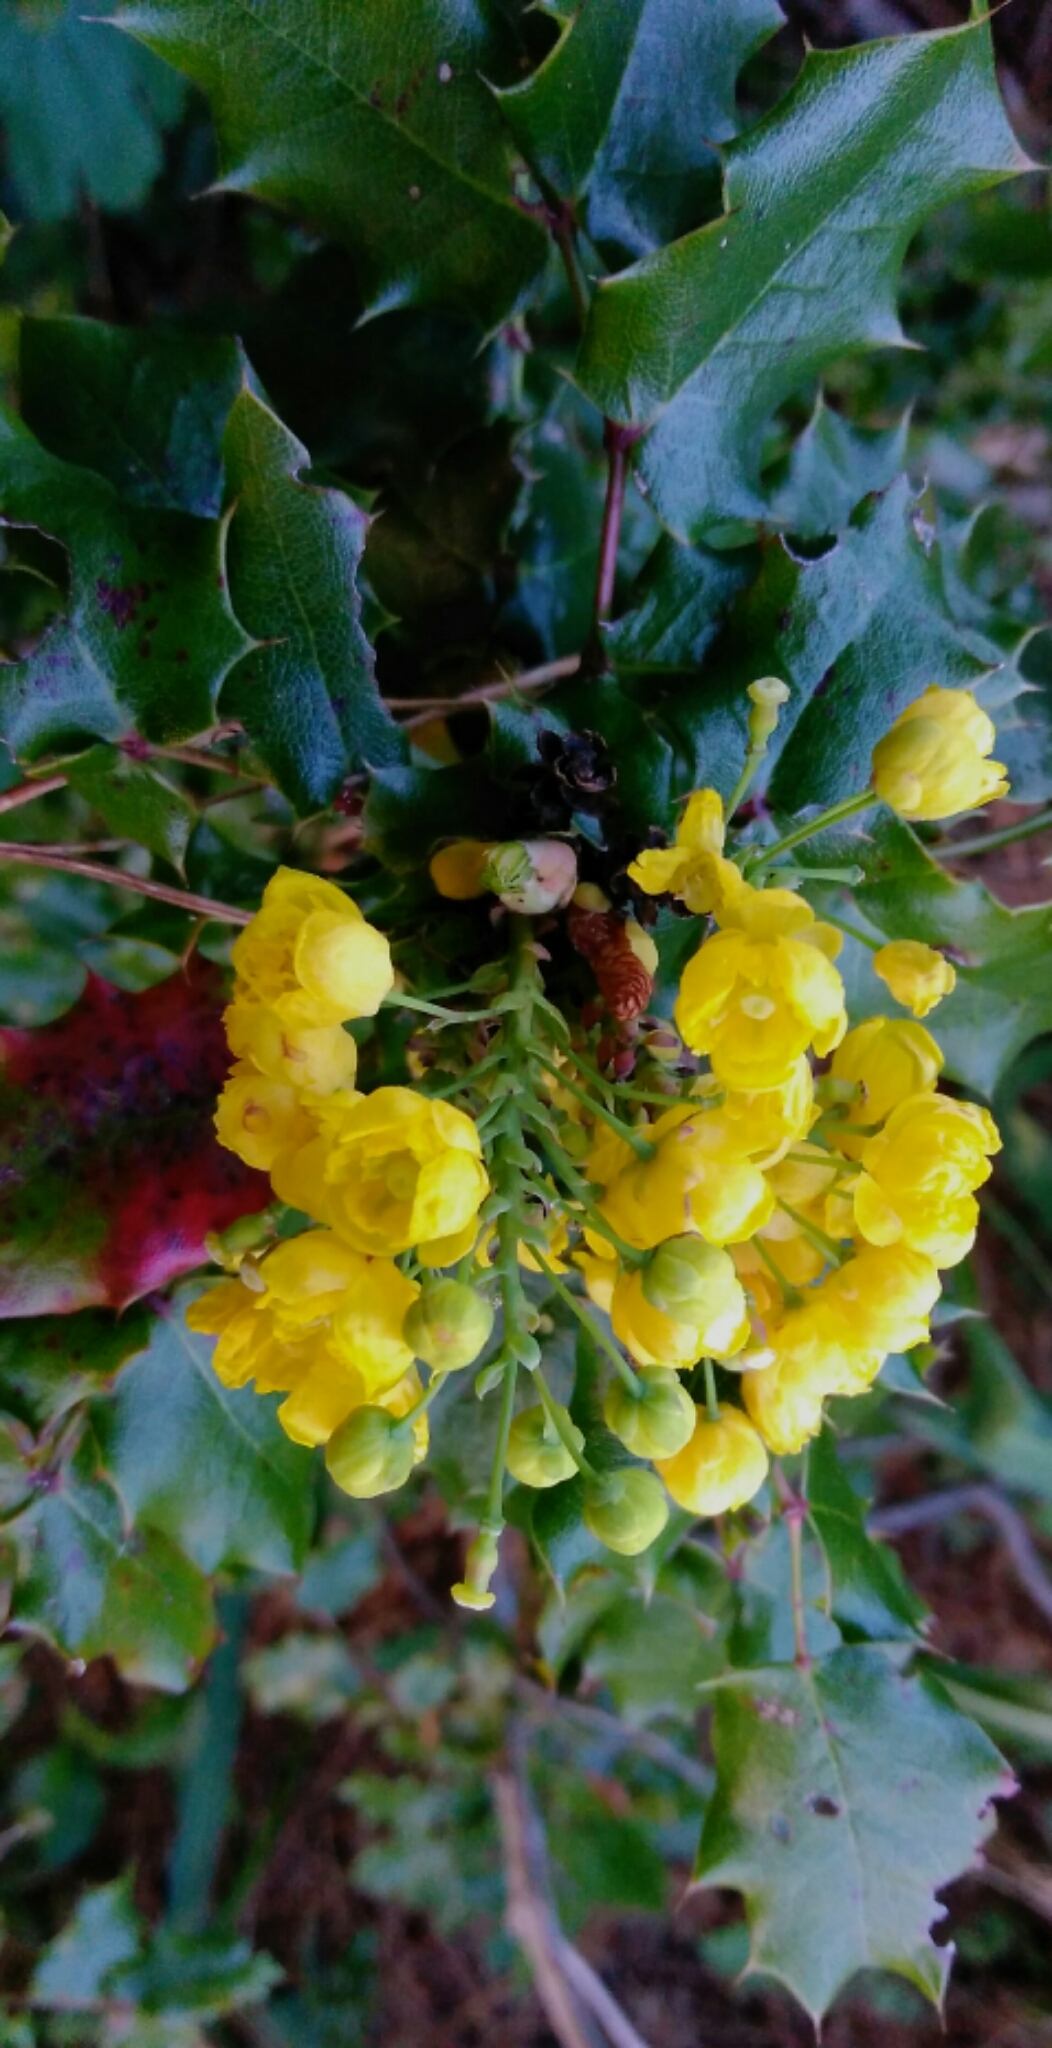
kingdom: Plantae
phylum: Tracheophyta
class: Magnoliopsida
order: Ranunculales
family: Berberidaceae
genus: Mahonia
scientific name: Mahonia aquifolium
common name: Oregon-grape
